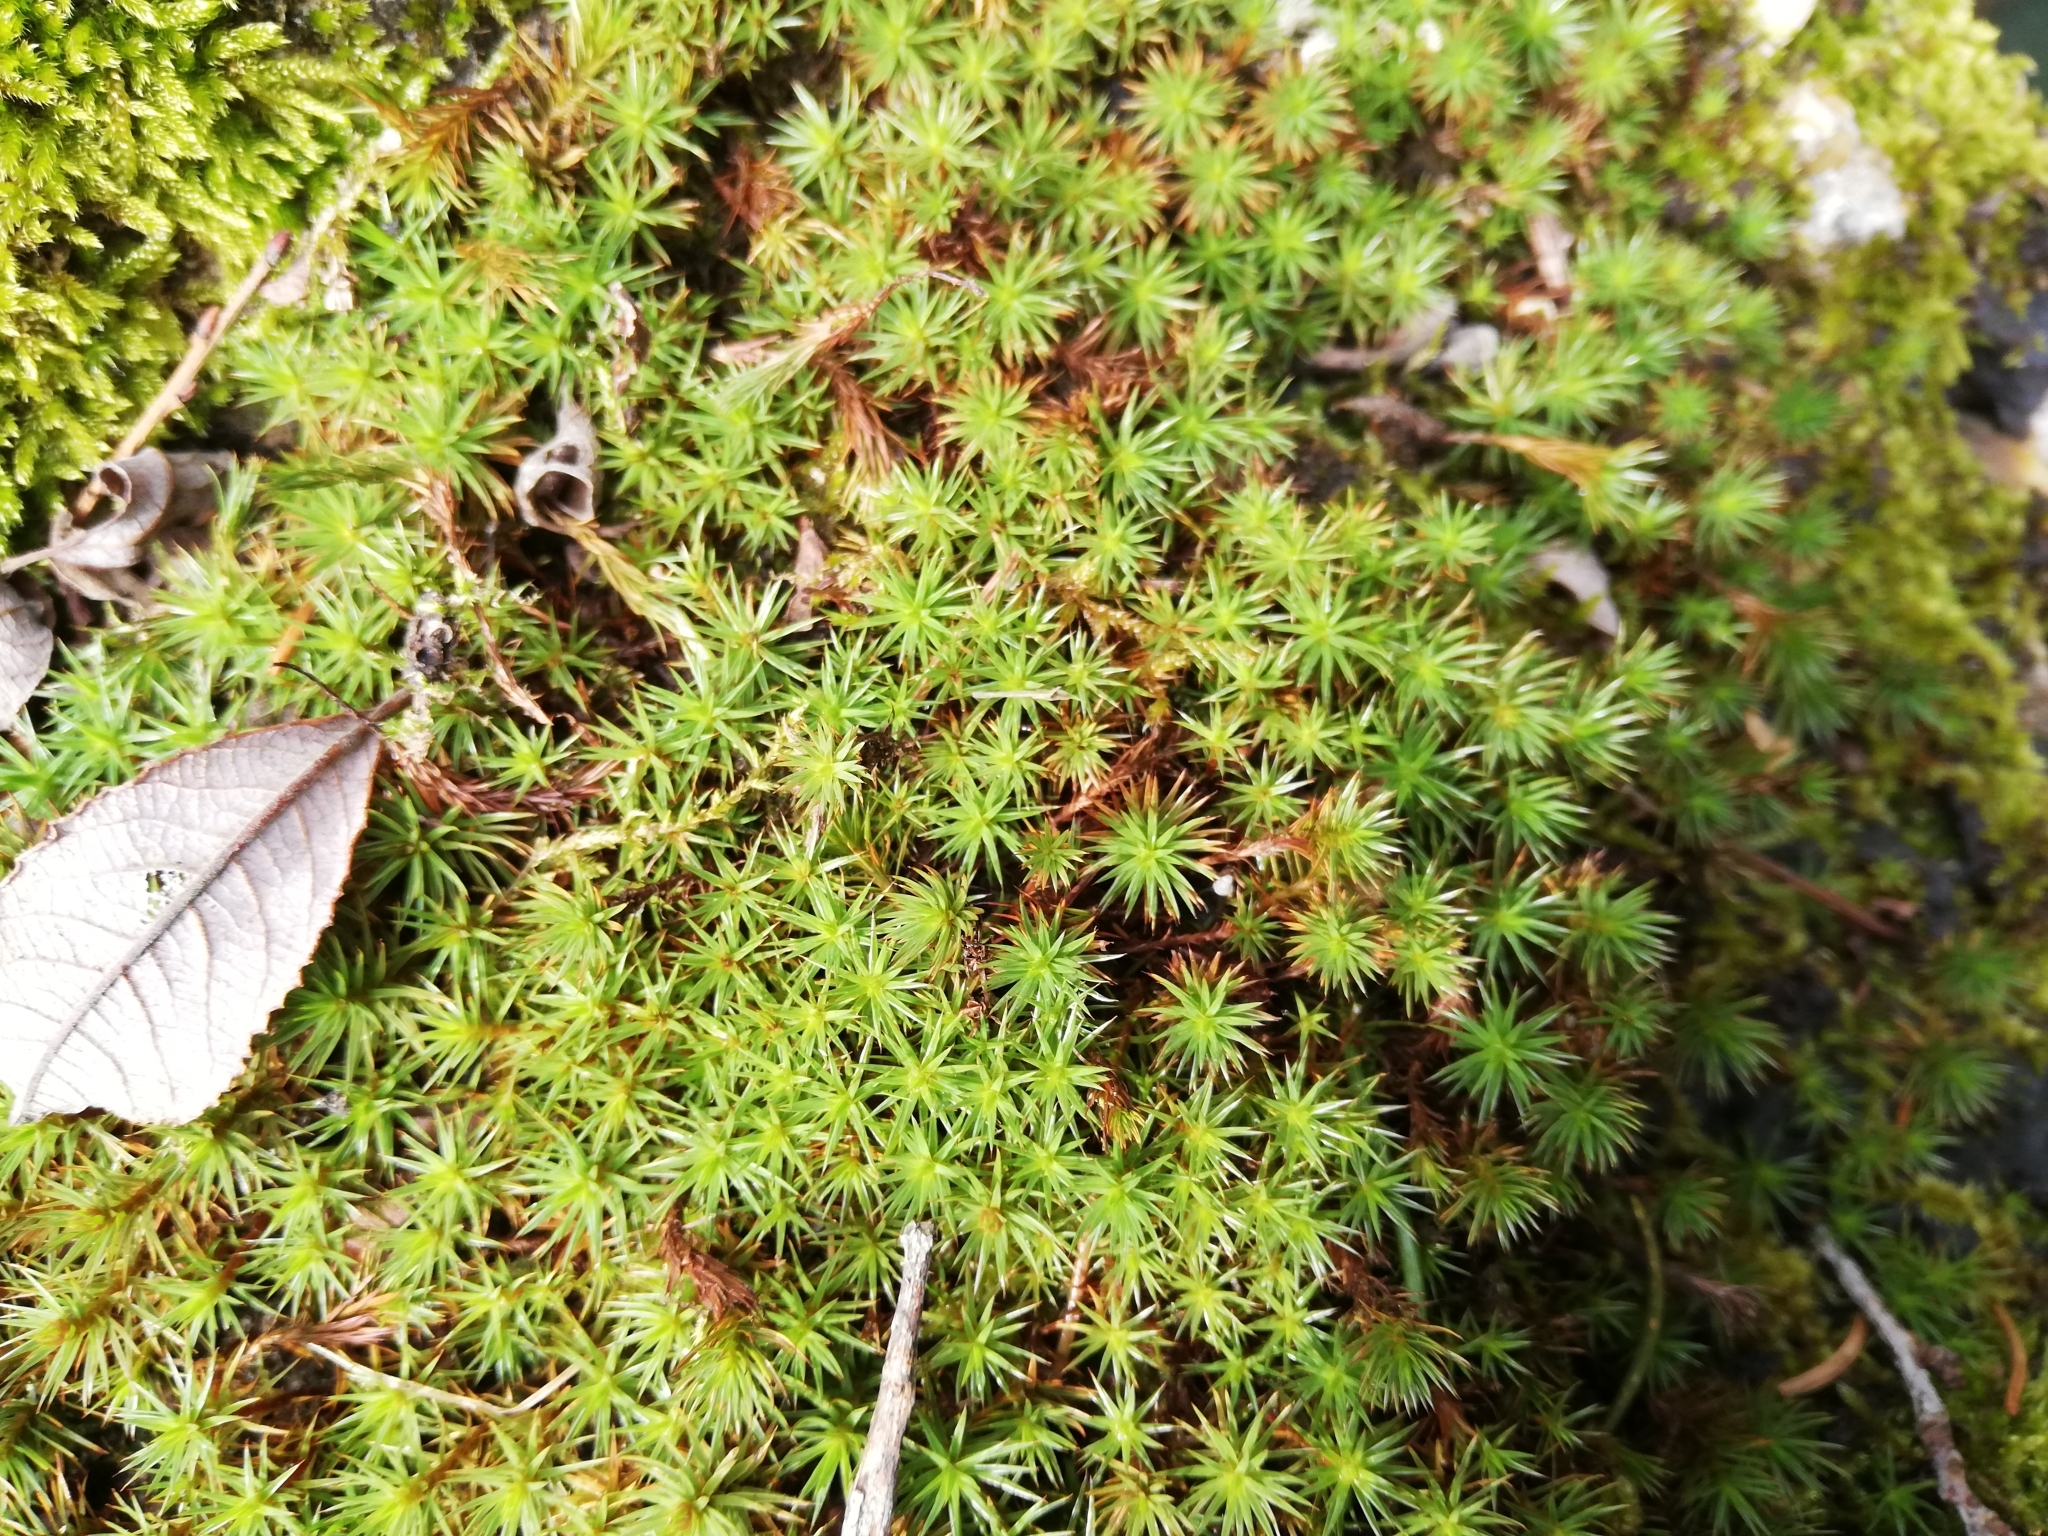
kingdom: Plantae
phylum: Bryophyta
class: Polytrichopsida
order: Polytrichales
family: Polytrichaceae
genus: Polytrichum
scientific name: Polytrichum juniperinum
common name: Juniper haircap moss
